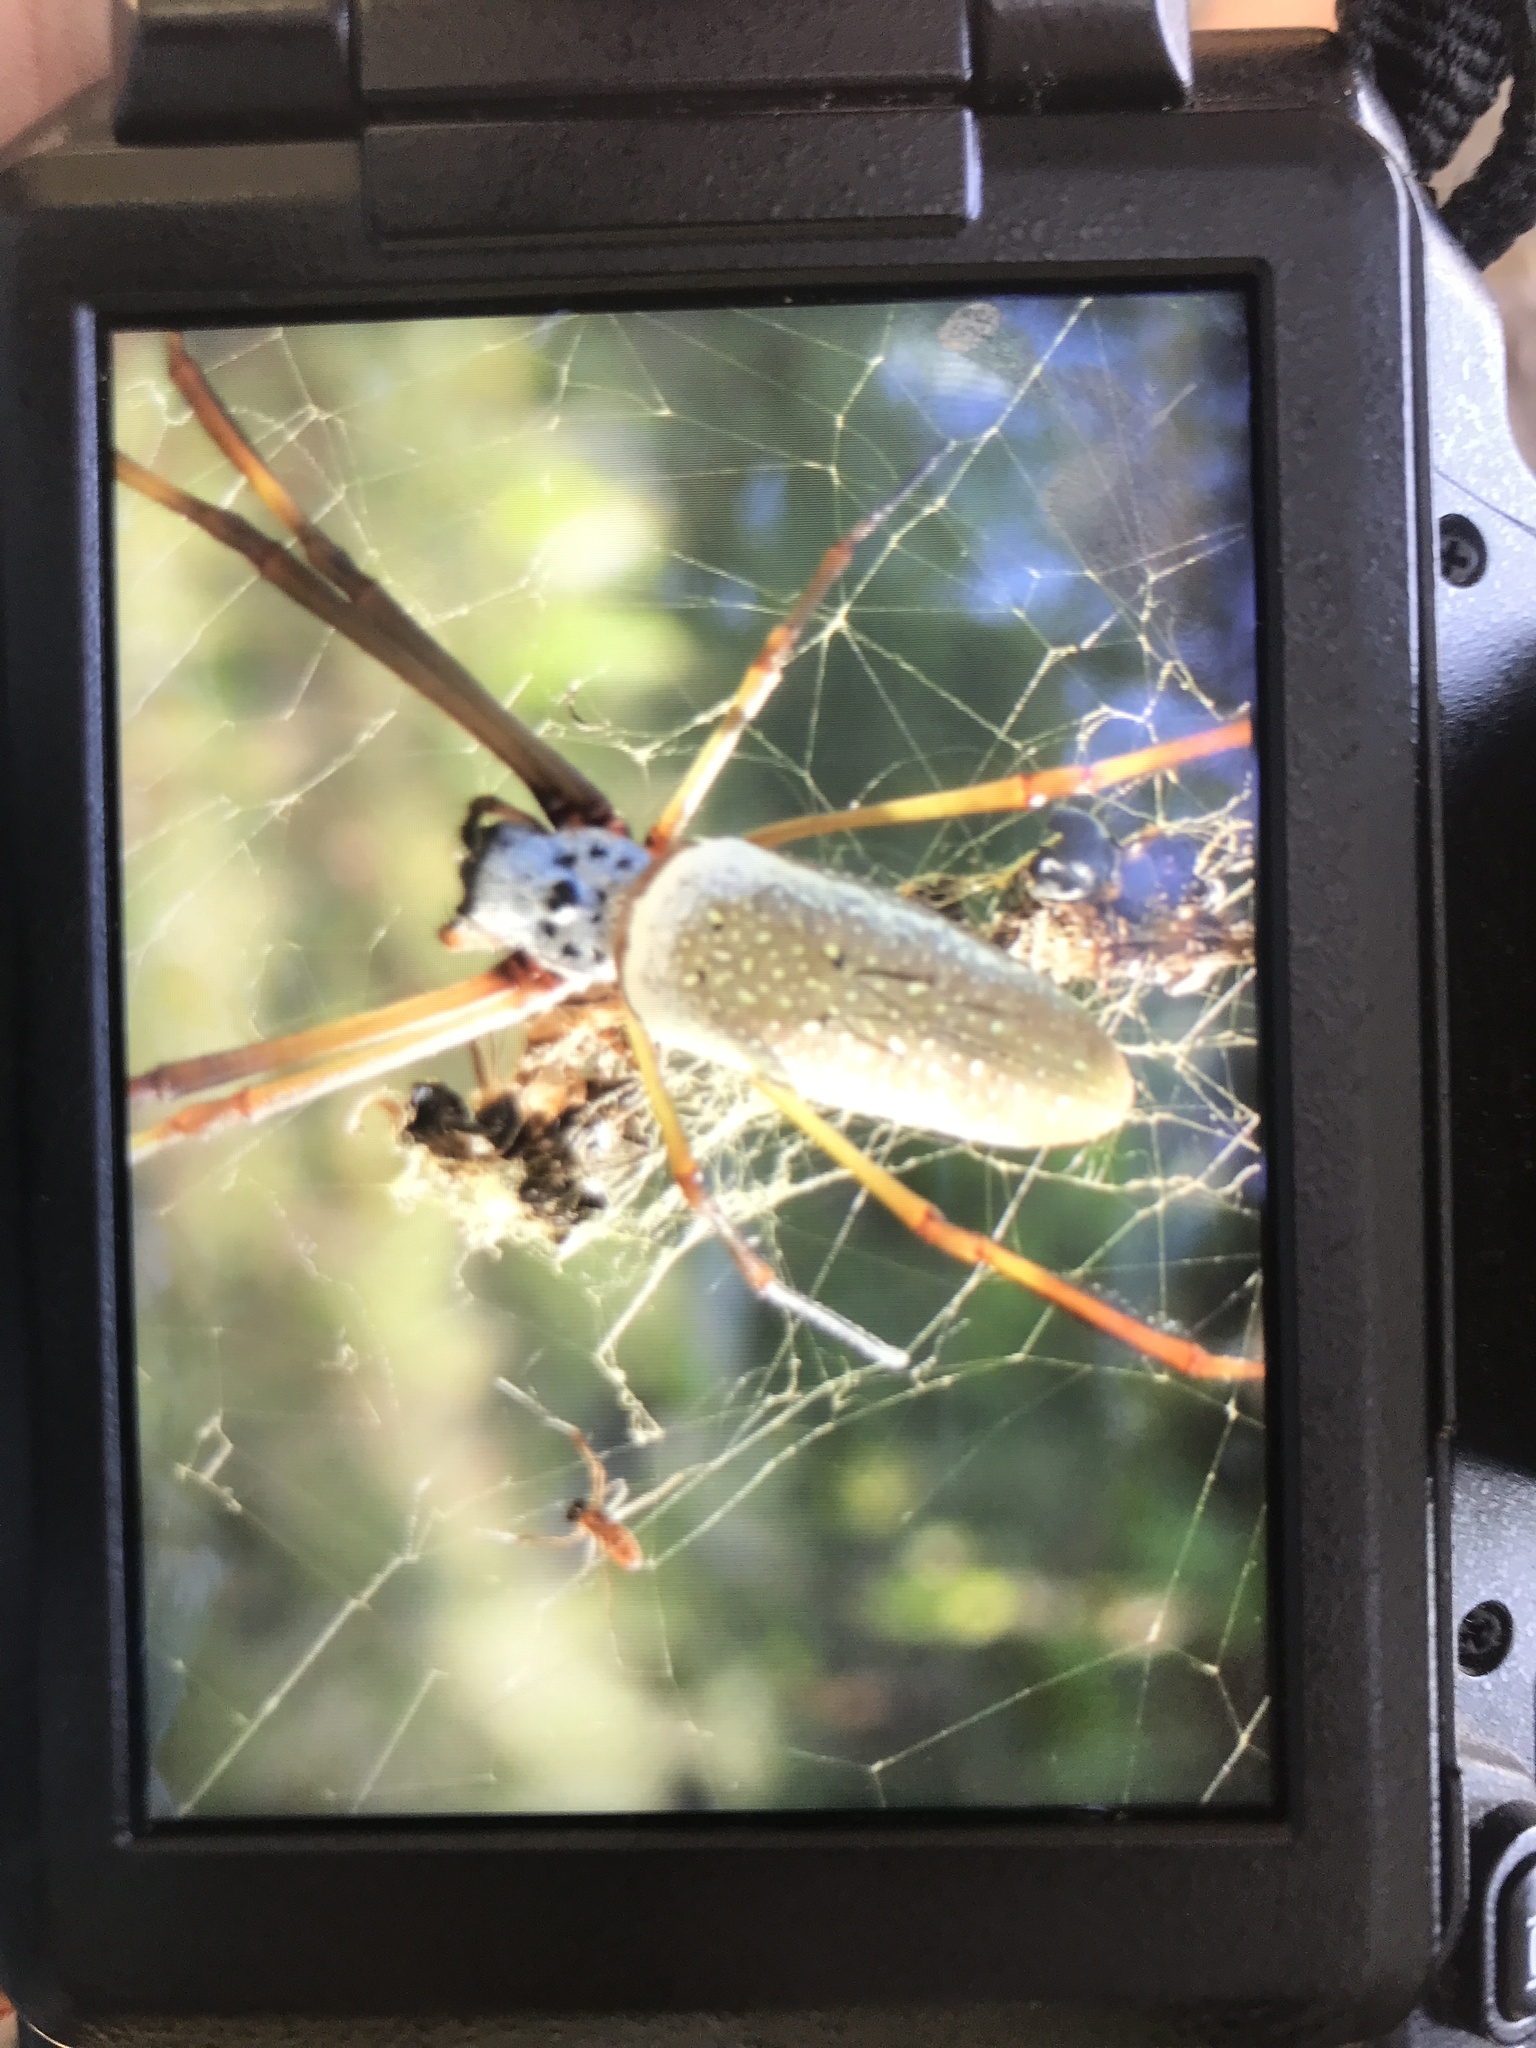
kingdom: Animalia
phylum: Arthropoda
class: Arachnida
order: Araneae
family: Araneidae
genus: Trichonephila
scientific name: Trichonephila clavipes
